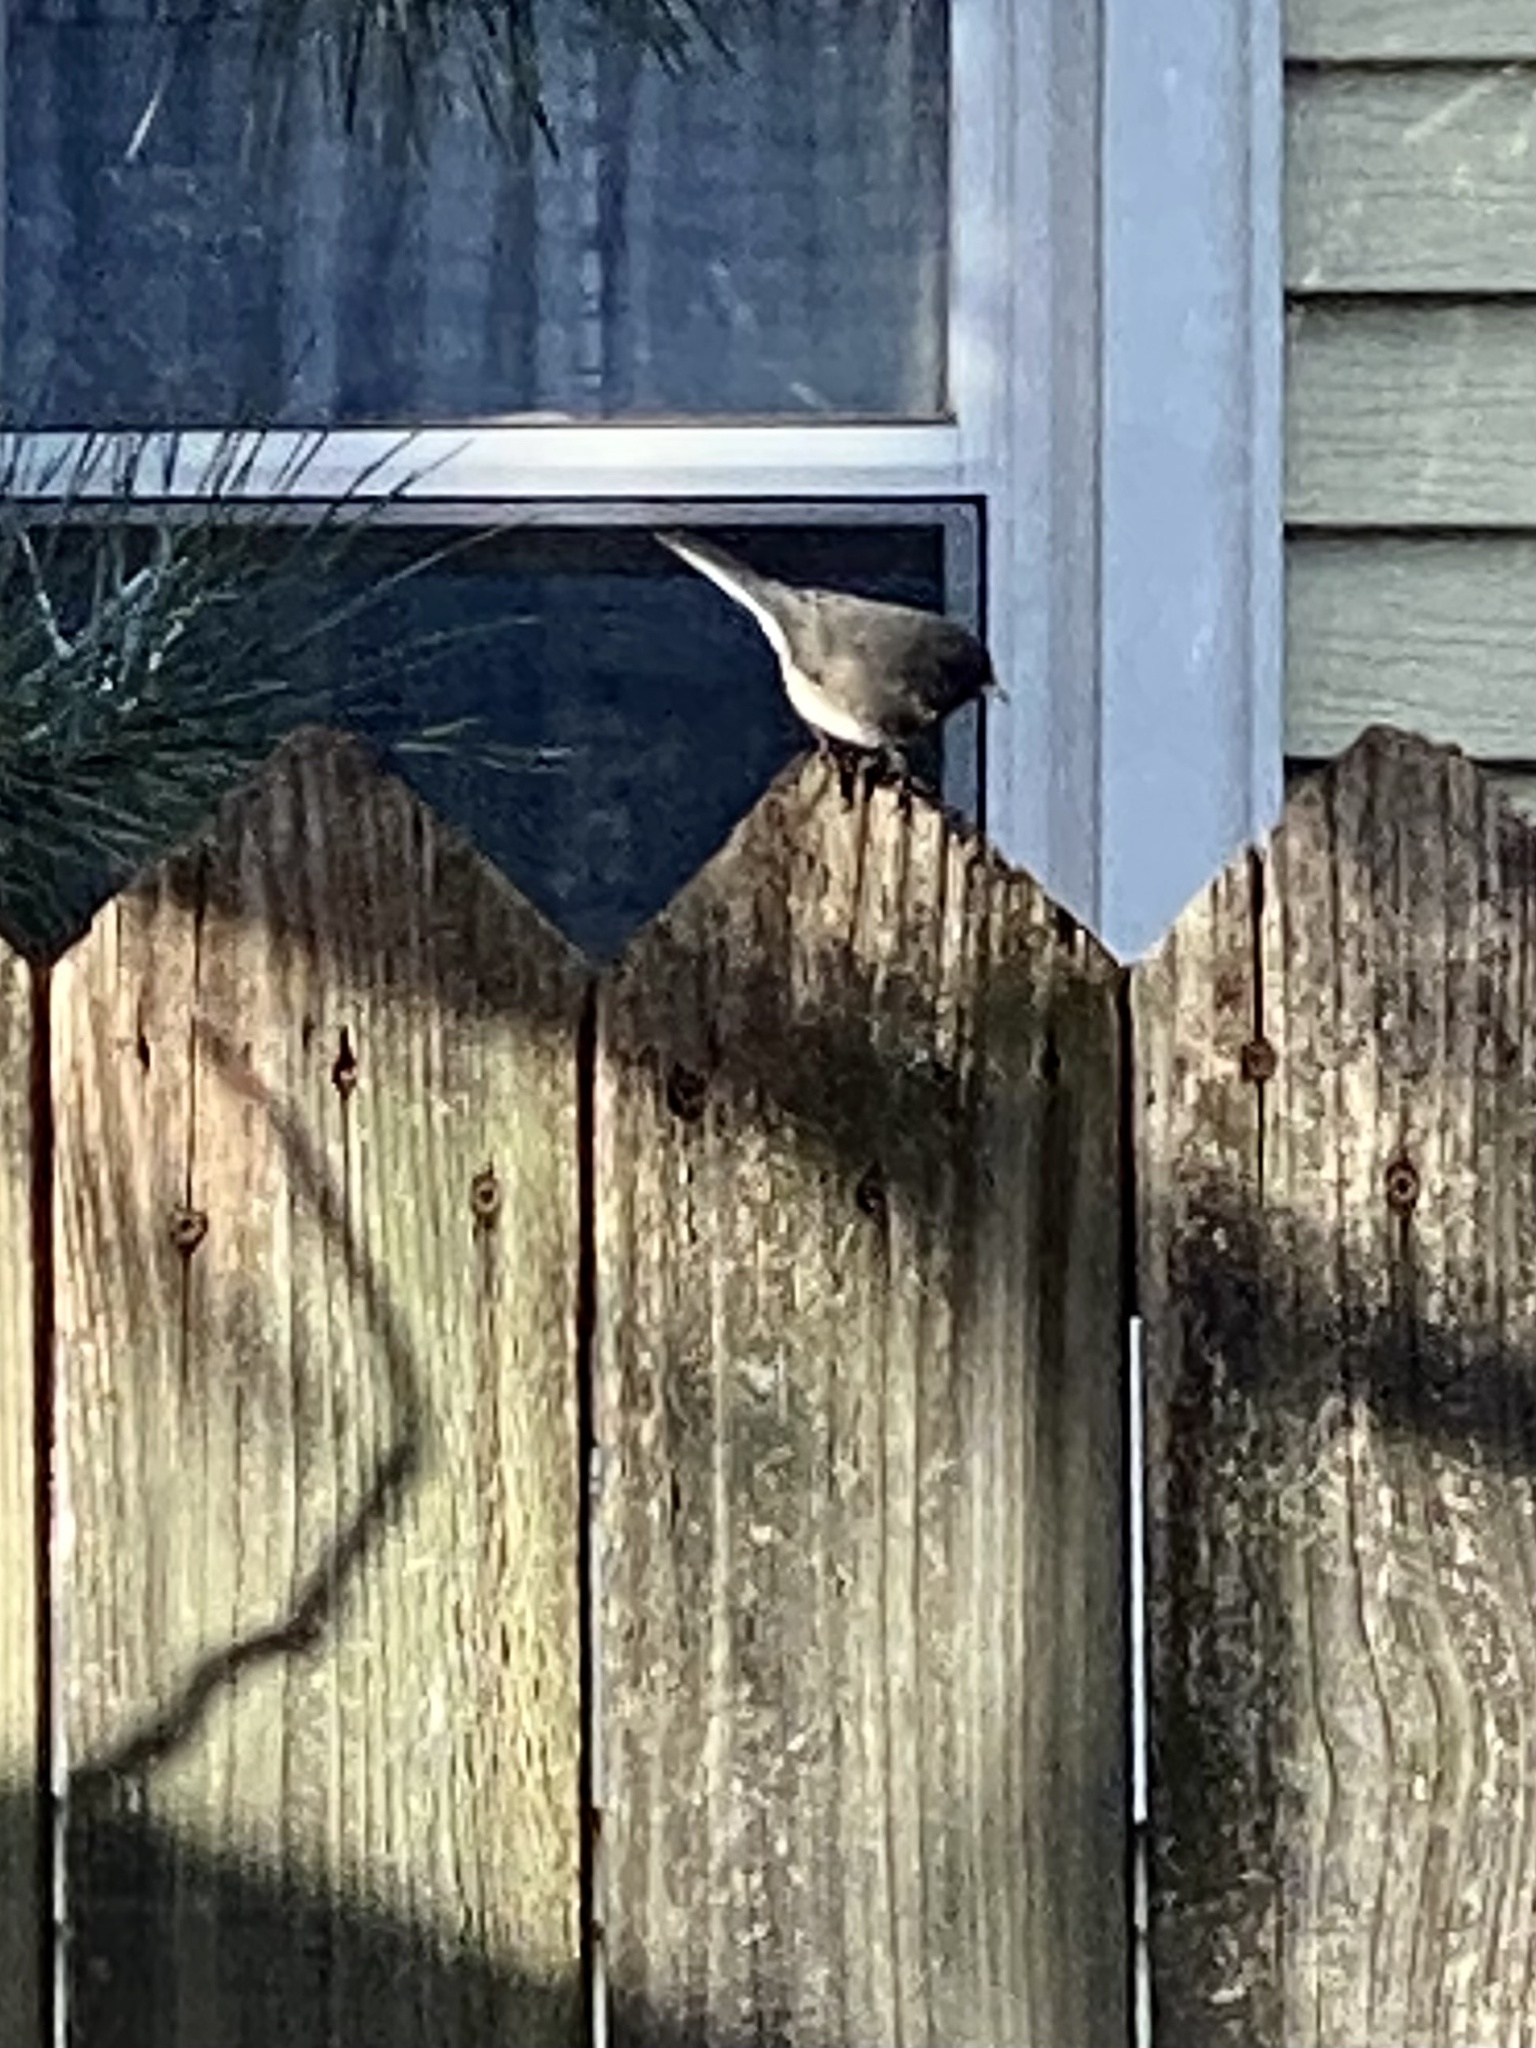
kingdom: Animalia
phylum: Chordata
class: Aves
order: Passeriformes
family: Passerellidae
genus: Junco
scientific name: Junco hyemalis
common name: Dark-eyed junco
